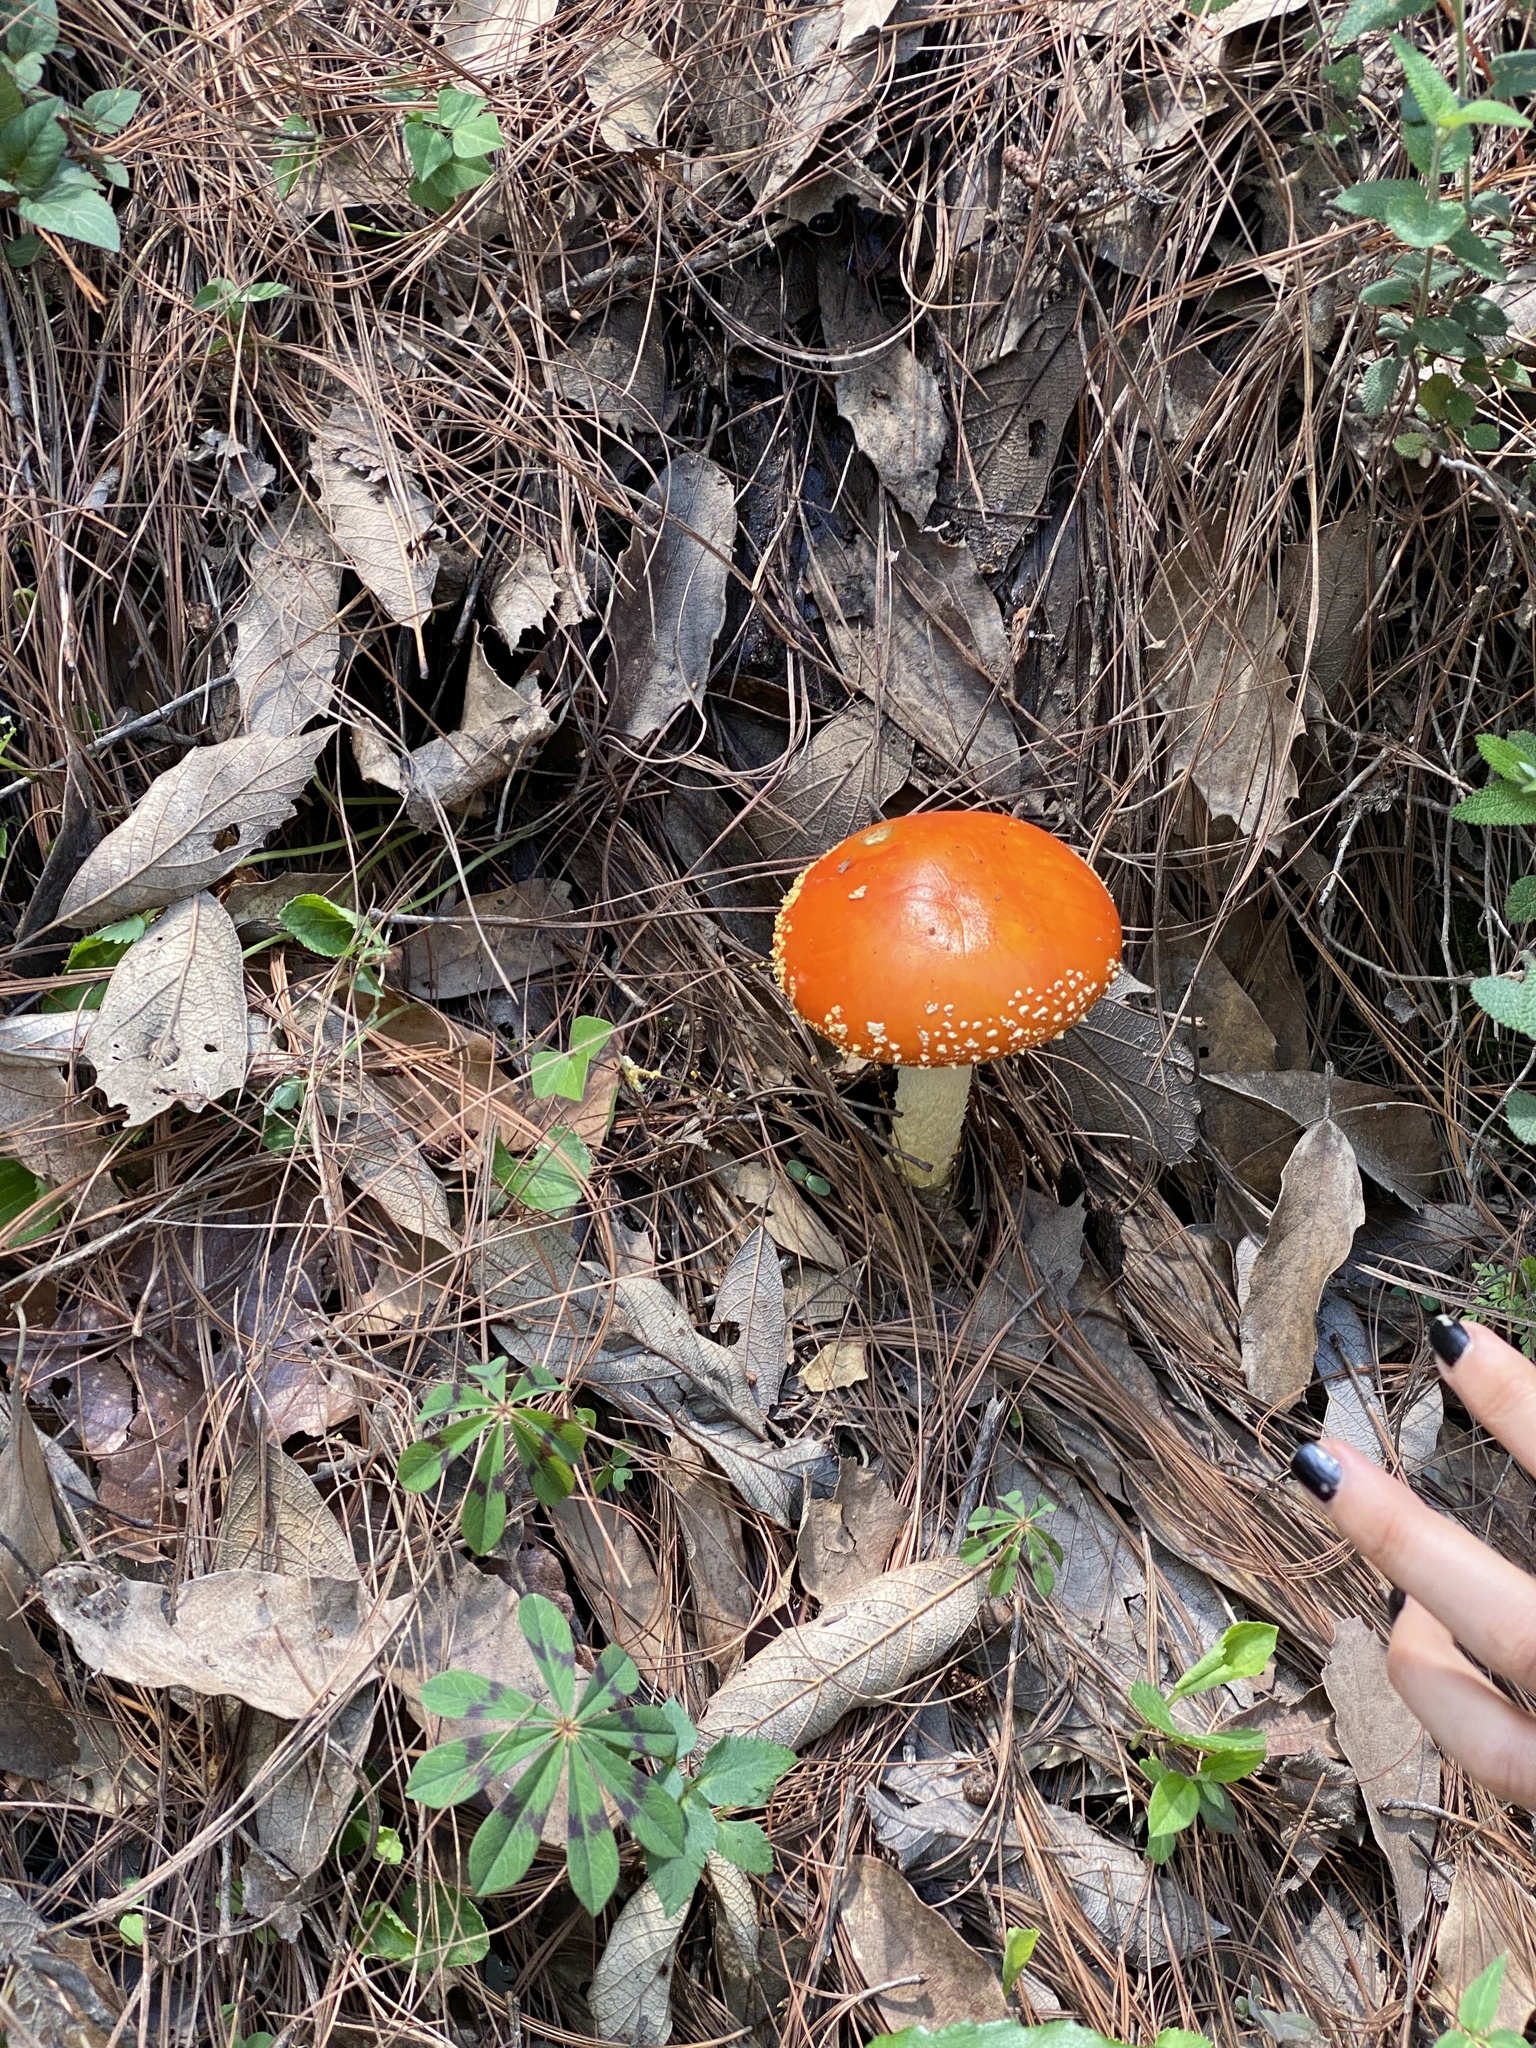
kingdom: Fungi
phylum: Basidiomycota
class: Agaricomycetes
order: Agaricales
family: Amanitaceae
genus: Amanita
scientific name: Amanita muscaria
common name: Fly agaric
